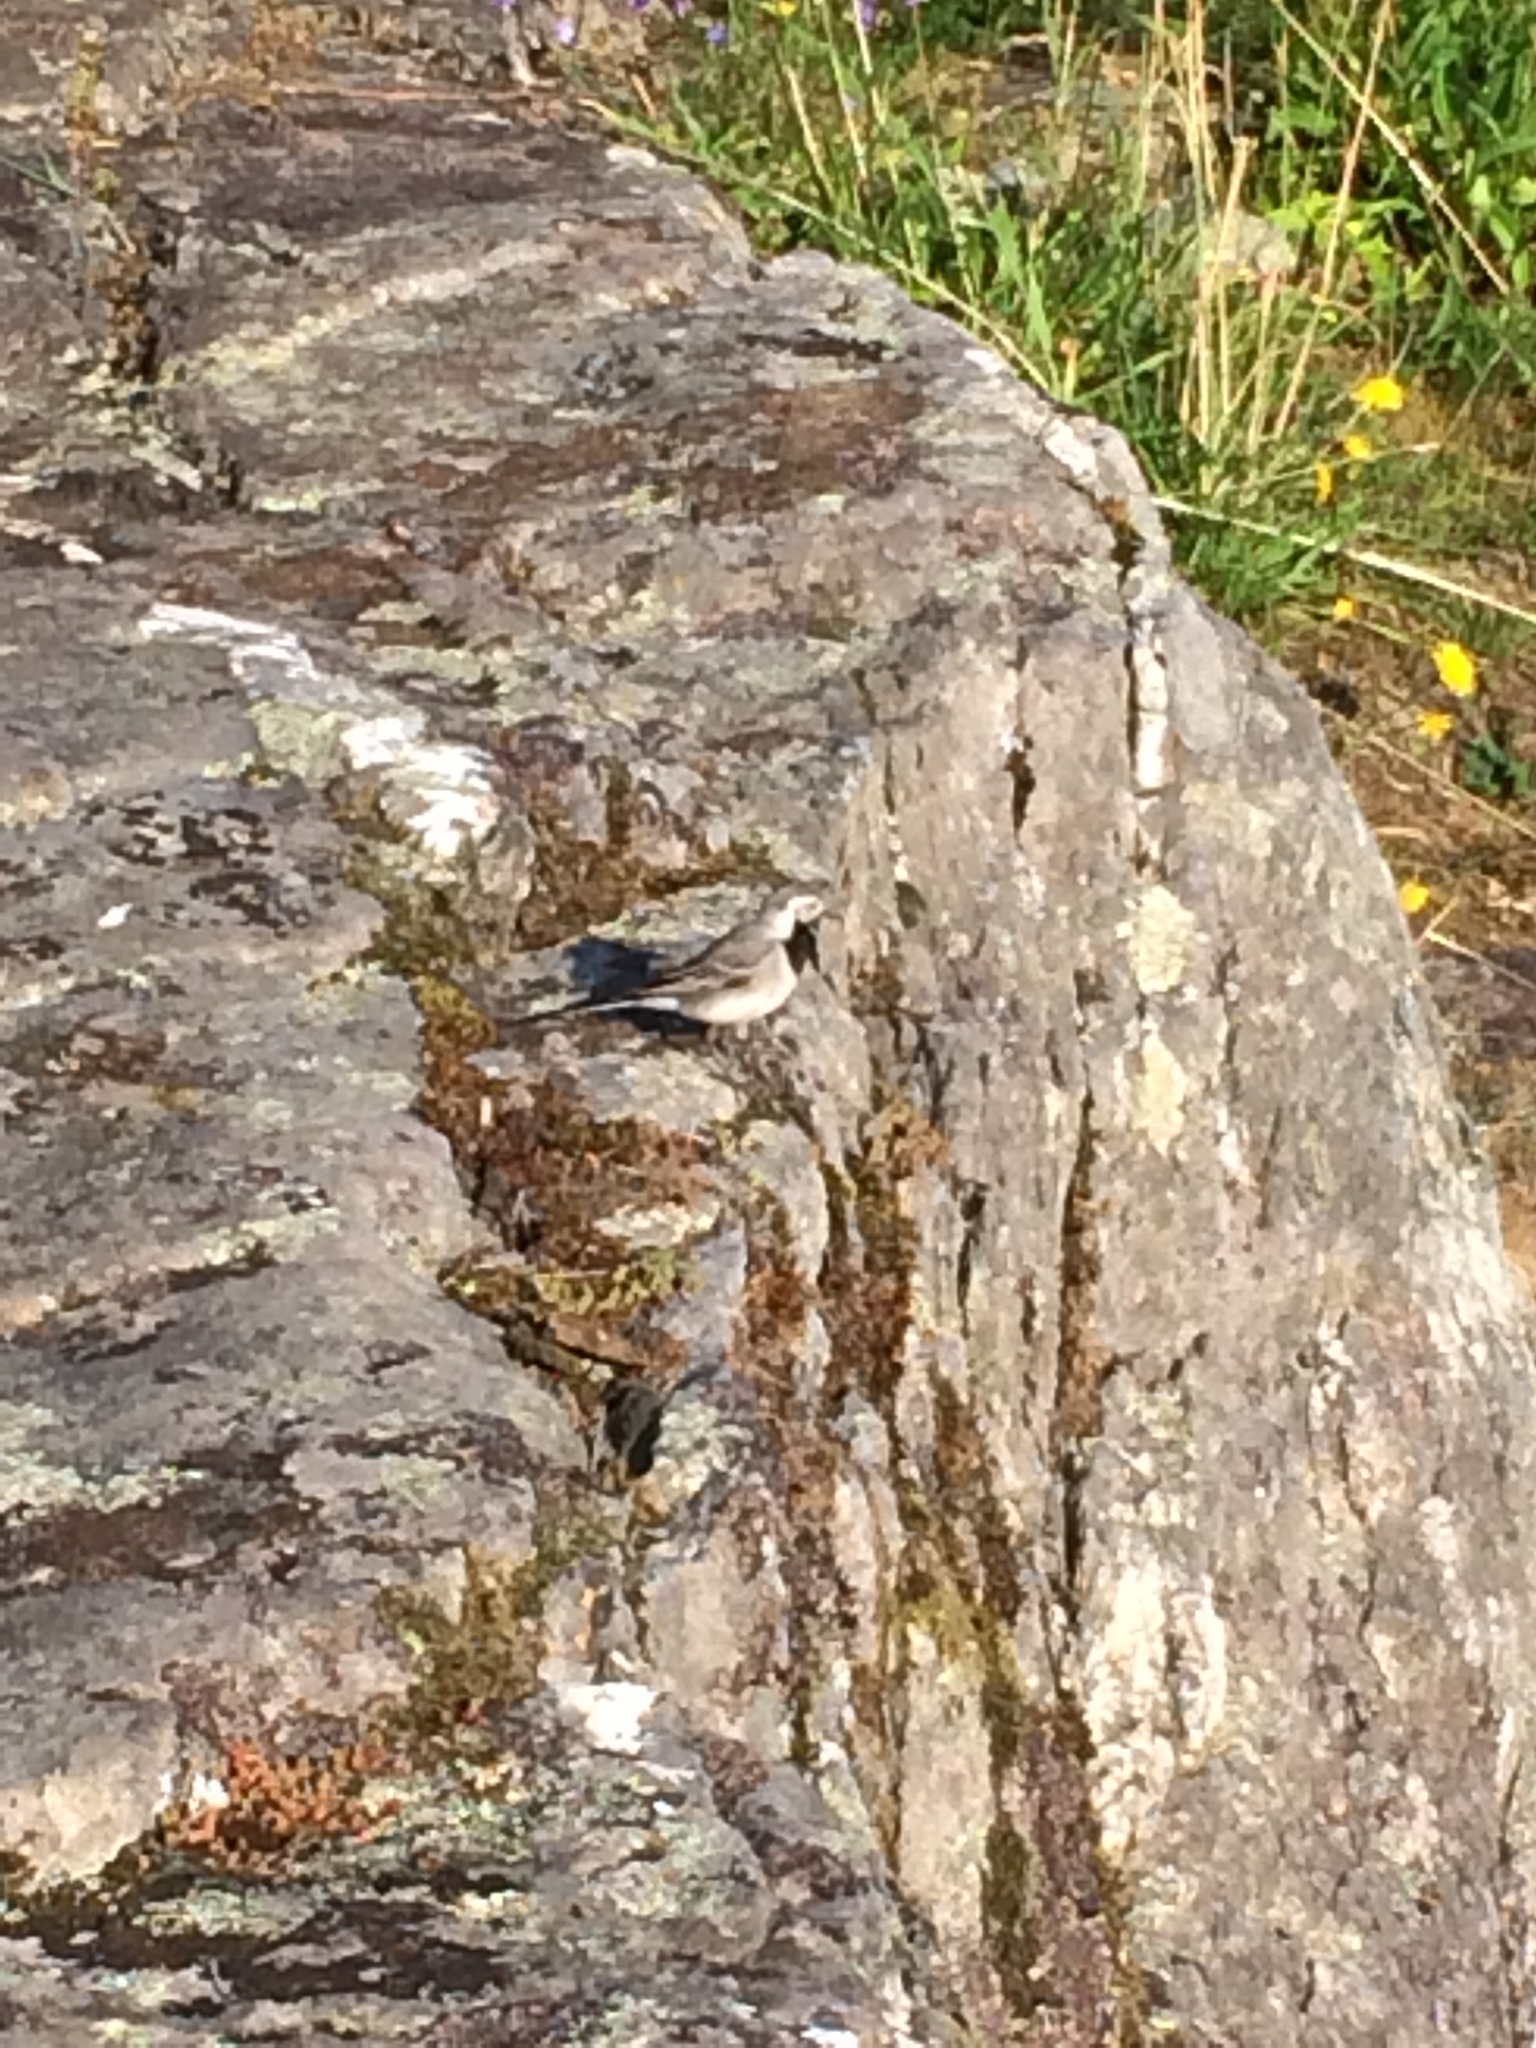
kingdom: Animalia
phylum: Chordata
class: Aves
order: Passeriformes
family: Motacillidae
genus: Motacilla
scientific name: Motacilla alba
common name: White wagtail
